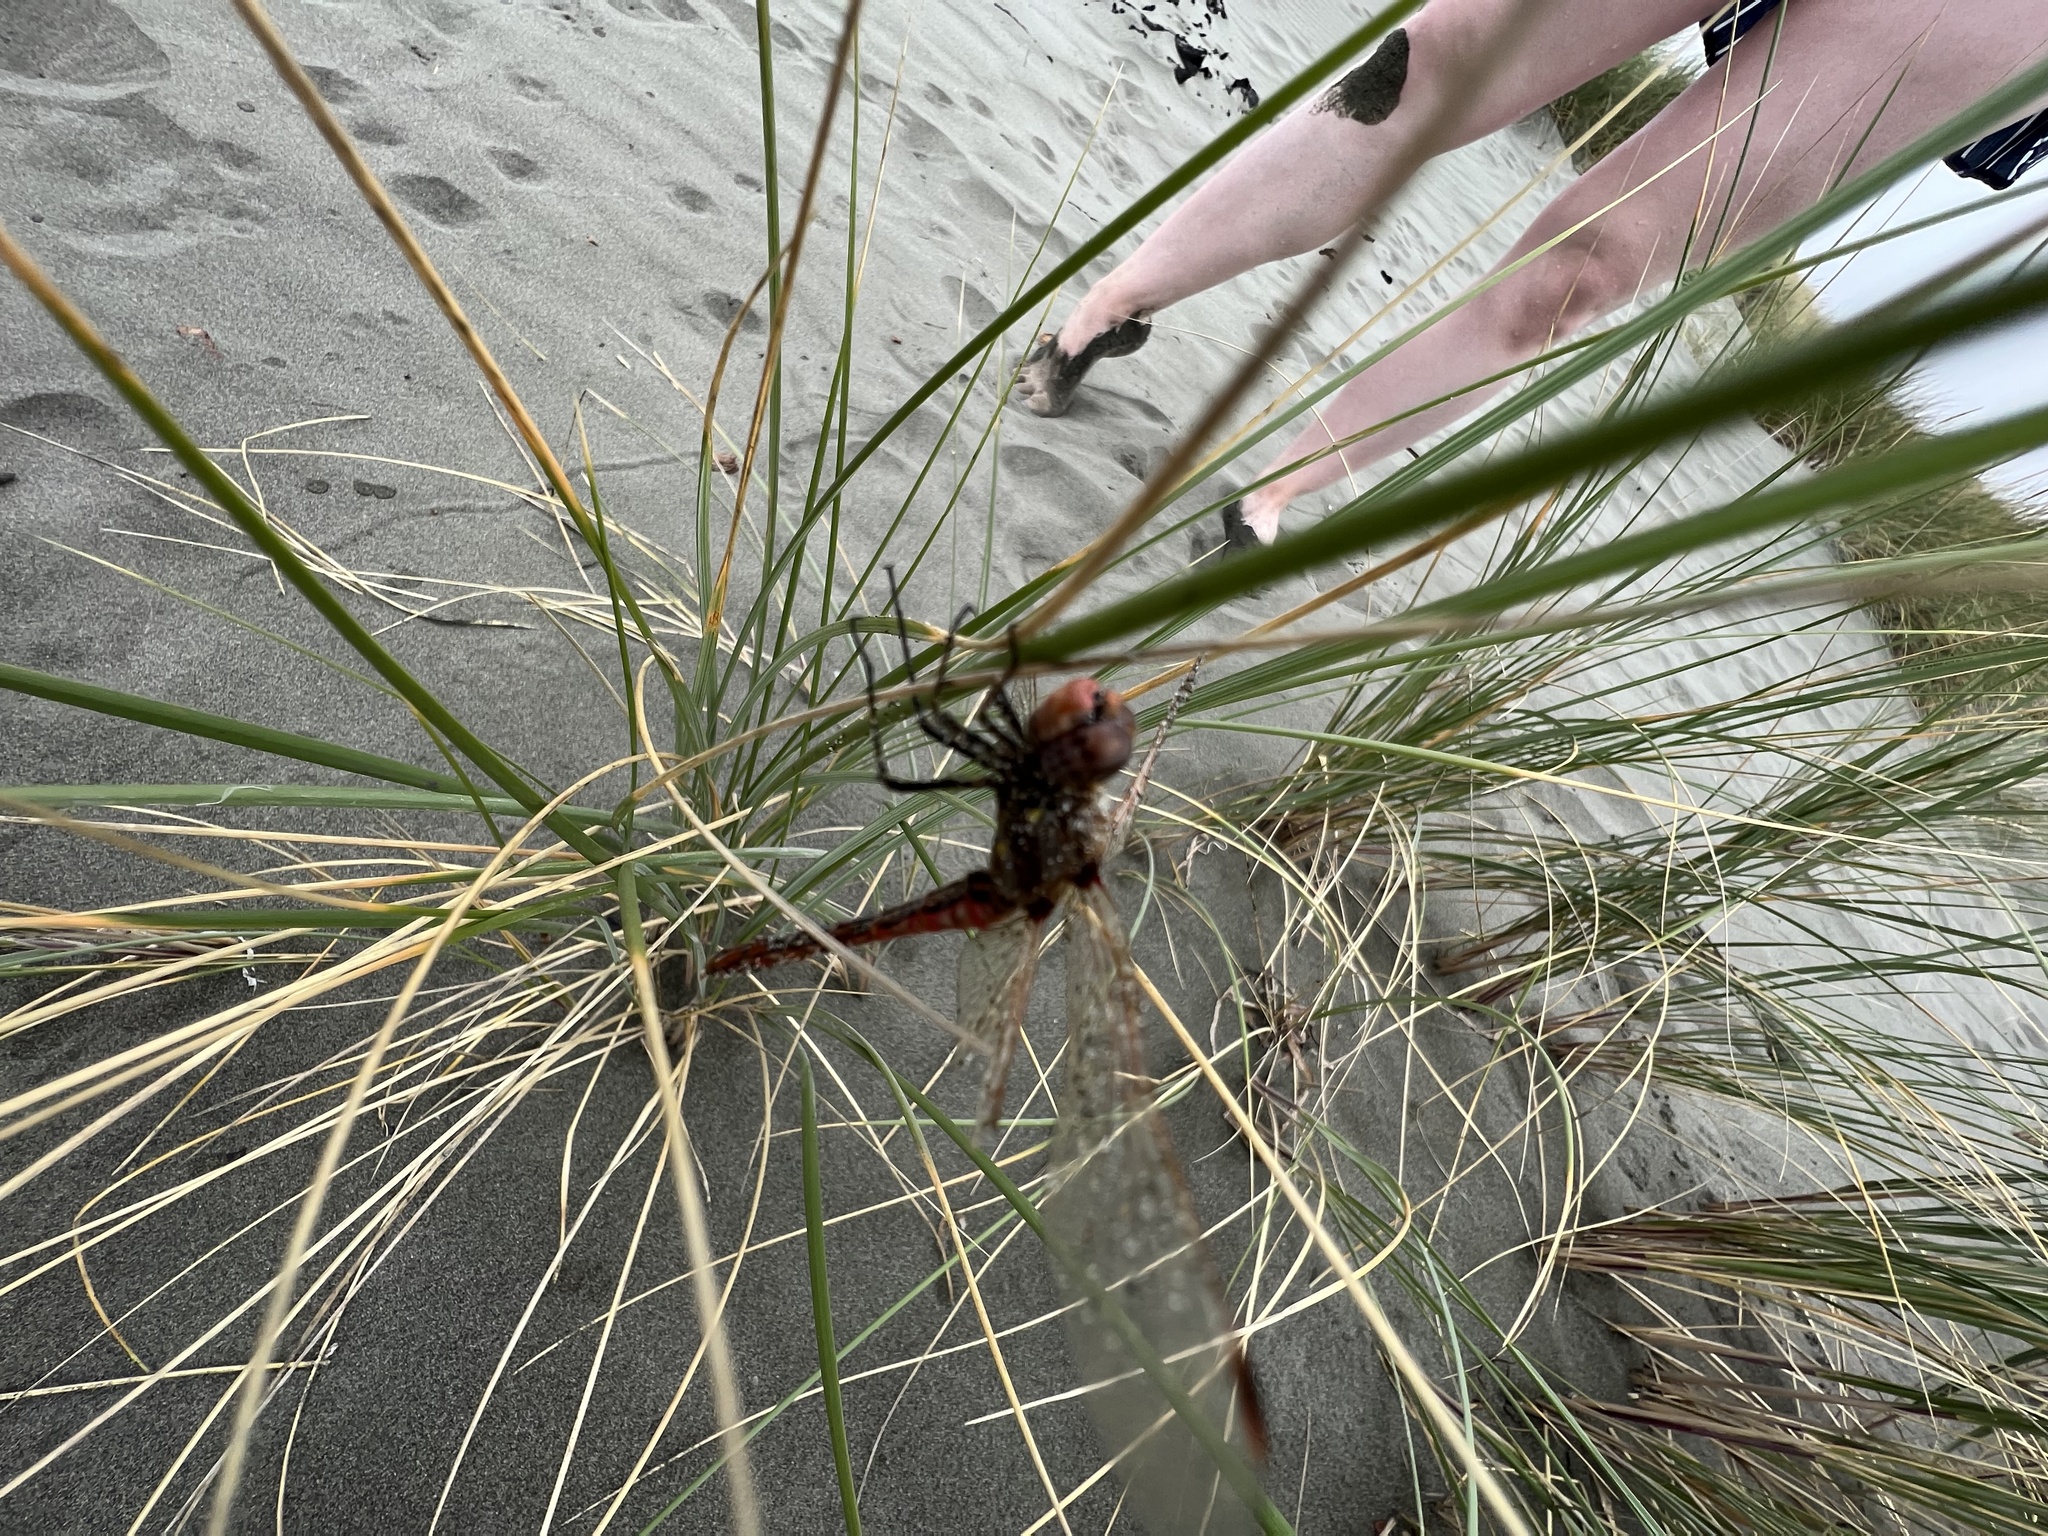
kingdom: Animalia
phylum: Arthropoda
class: Insecta
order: Odonata
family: Libellulidae
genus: Sympetrum
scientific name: Sympetrum corruptum
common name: Variegated meadowhawk
